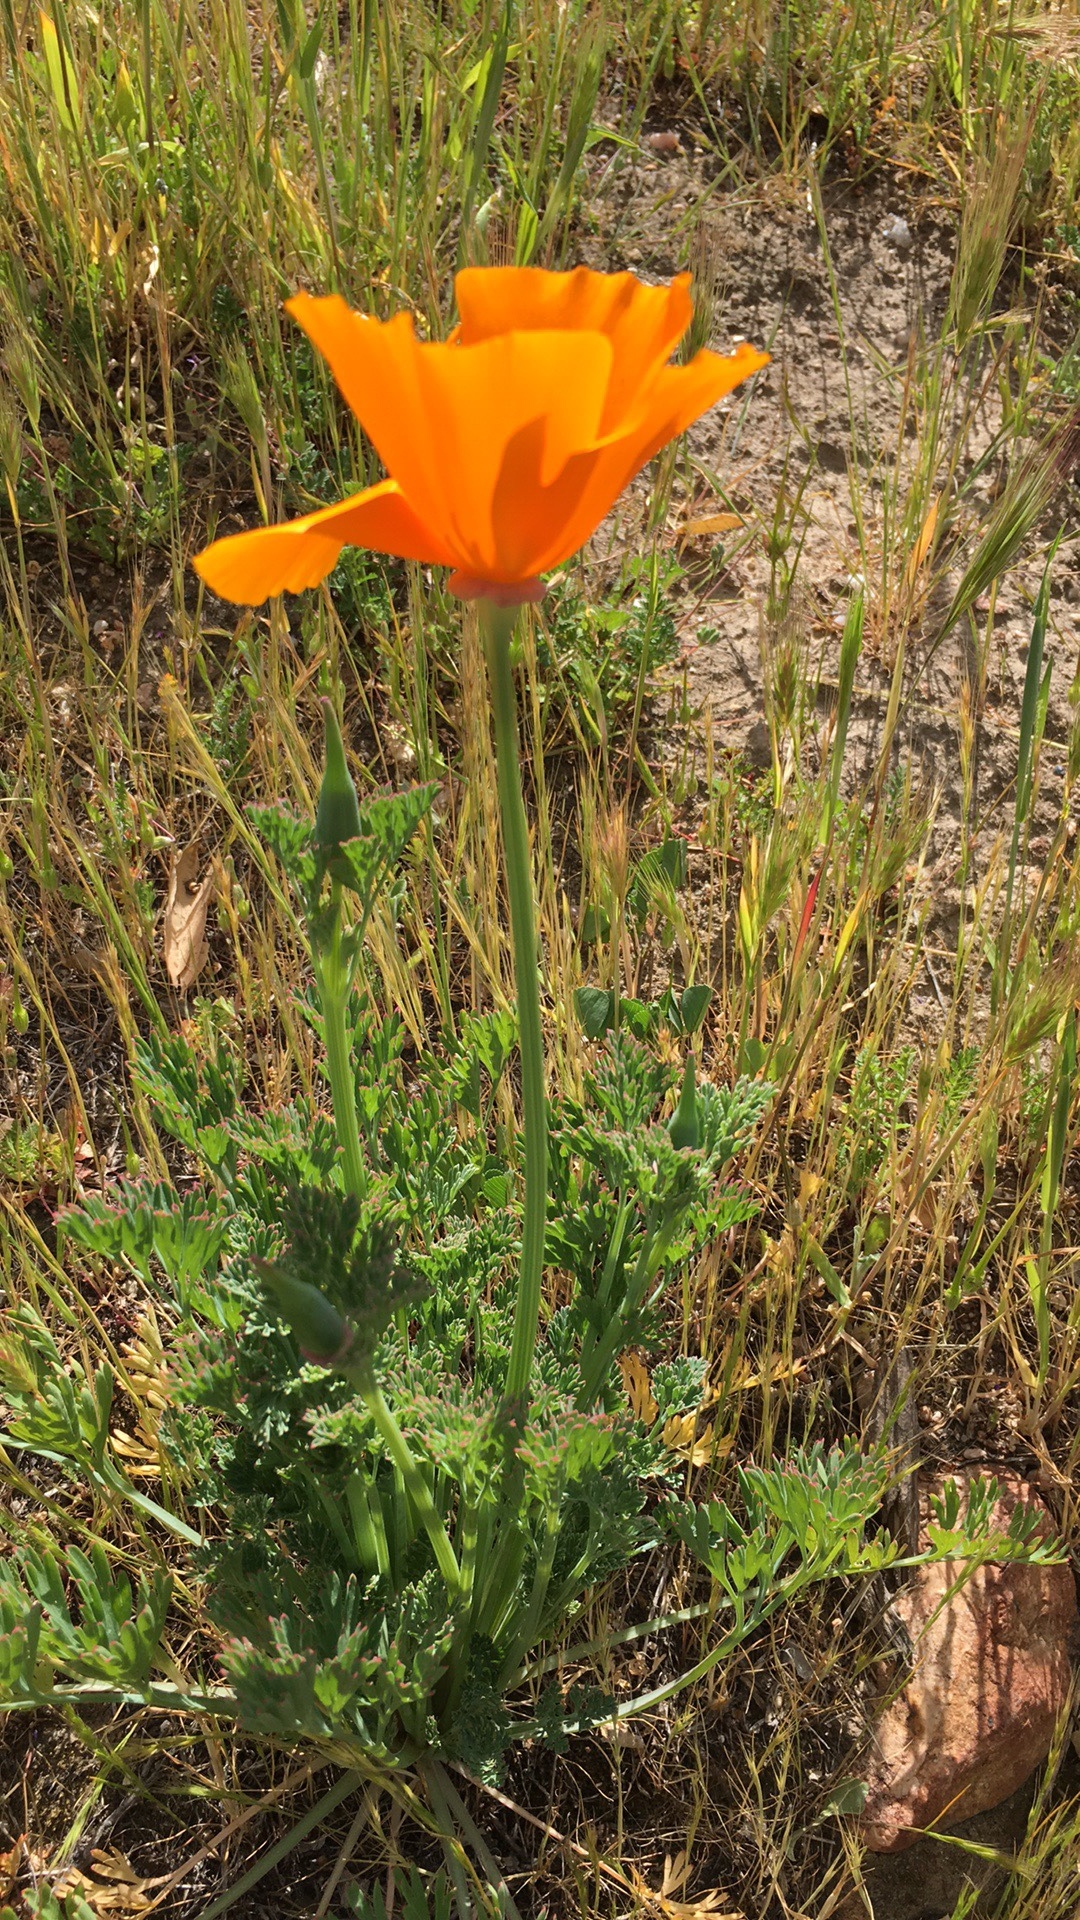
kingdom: Plantae
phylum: Tracheophyta
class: Magnoliopsida
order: Ranunculales
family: Papaveraceae
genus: Eschscholzia
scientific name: Eschscholzia californica
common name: California poppy
